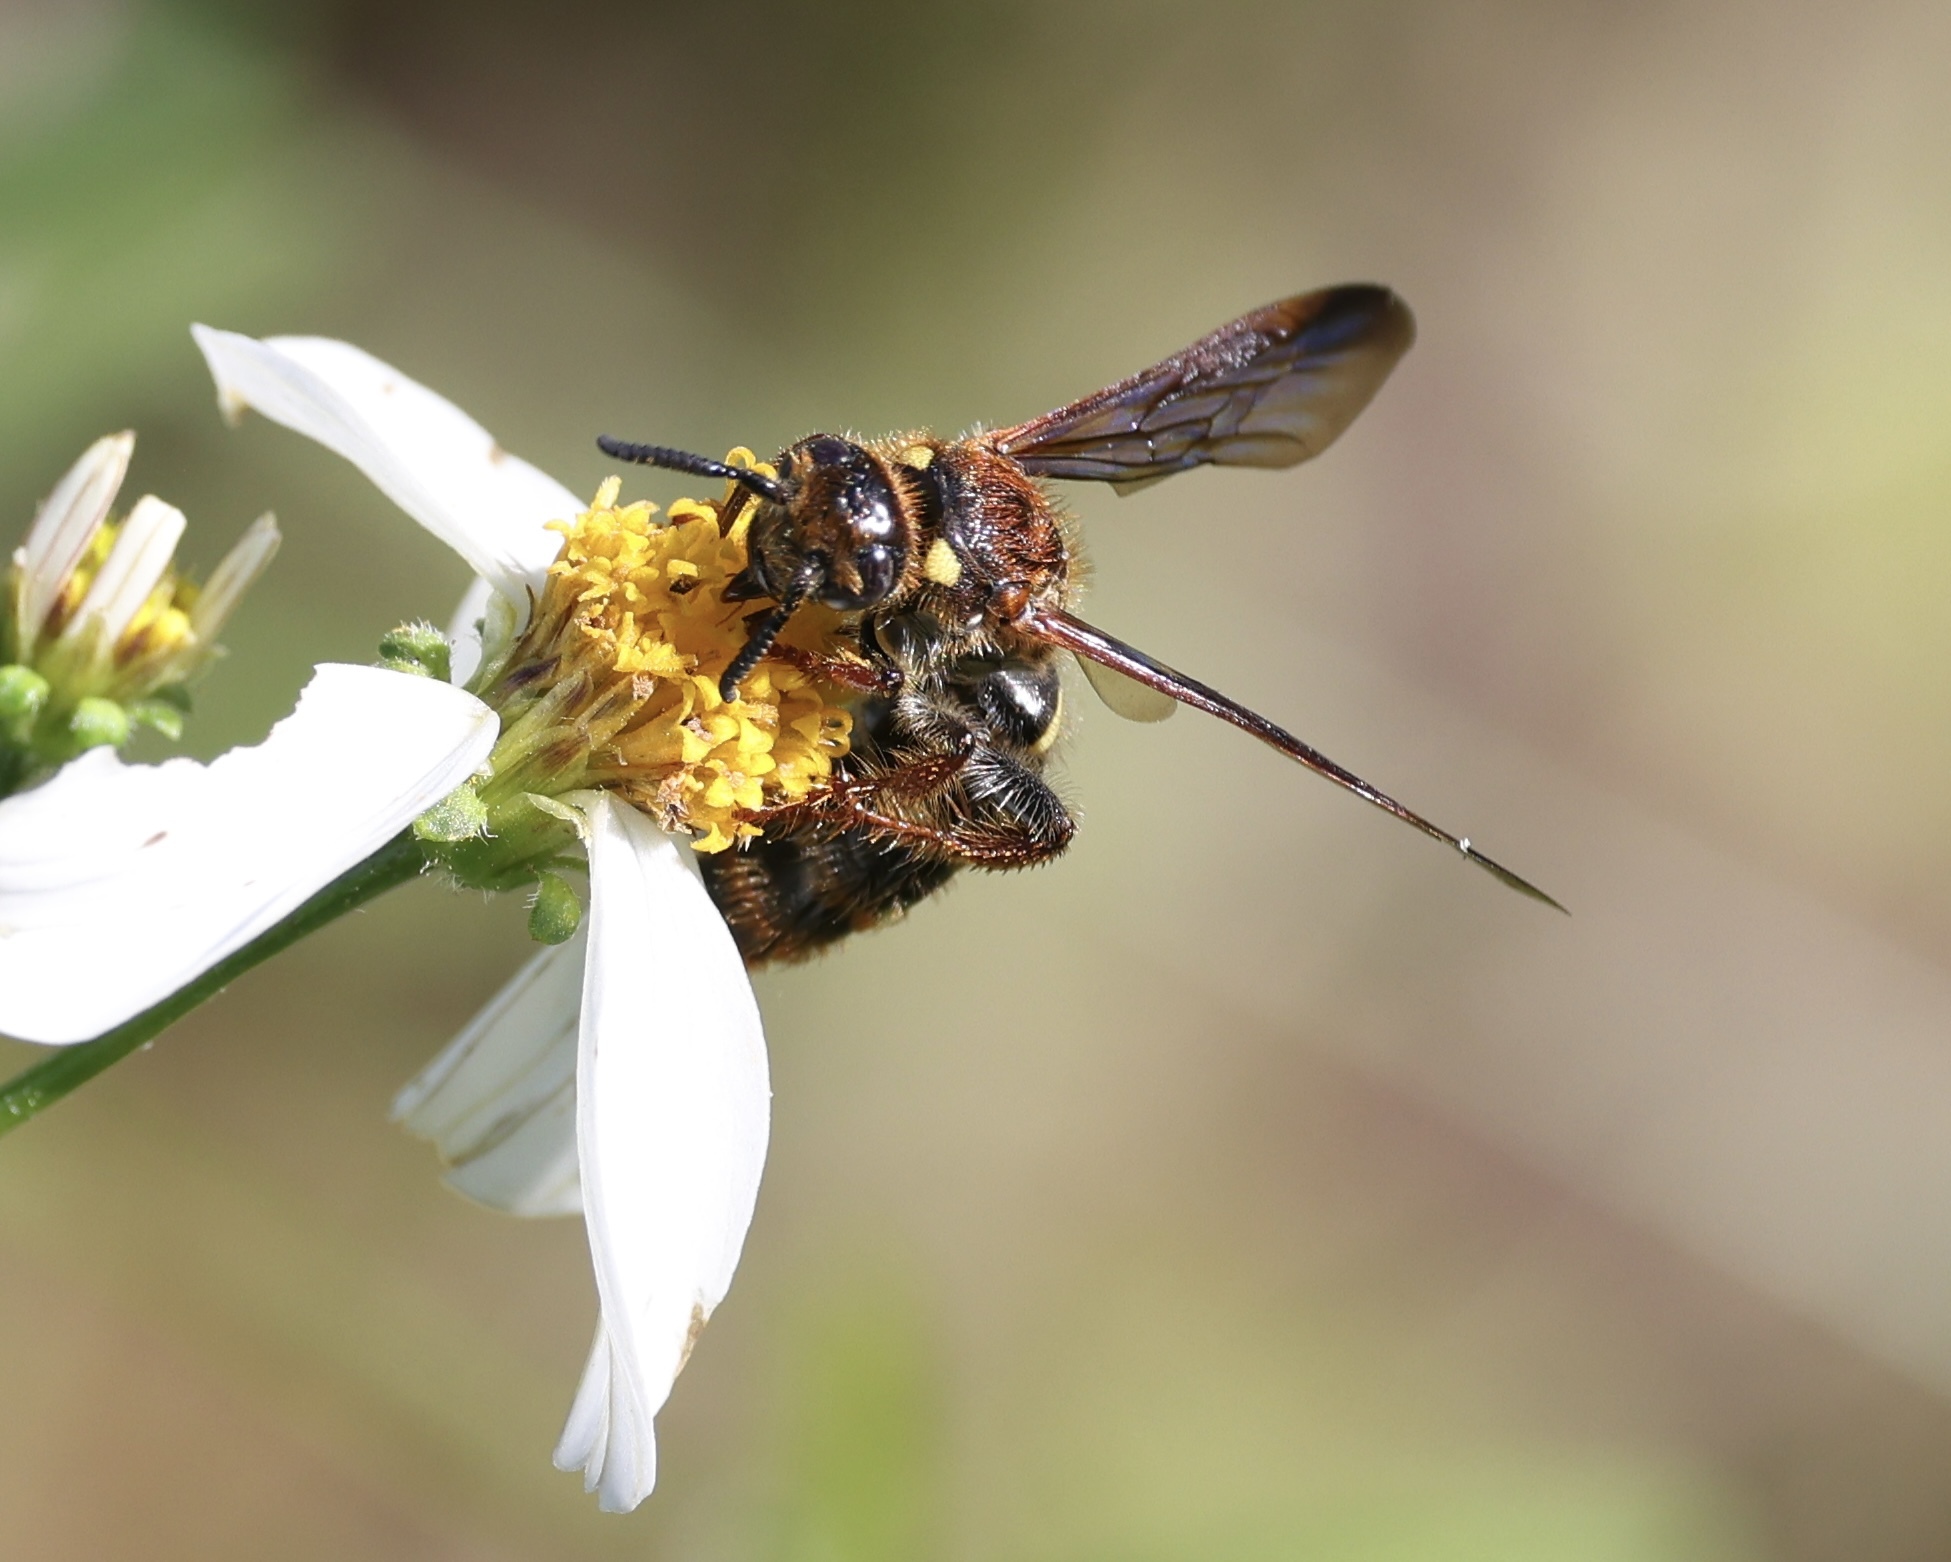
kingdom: Animalia
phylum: Arthropoda
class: Insecta
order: Hymenoptera
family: Scoliidae
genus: Xanthocampsomeris
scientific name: Xanthocampsomeris
